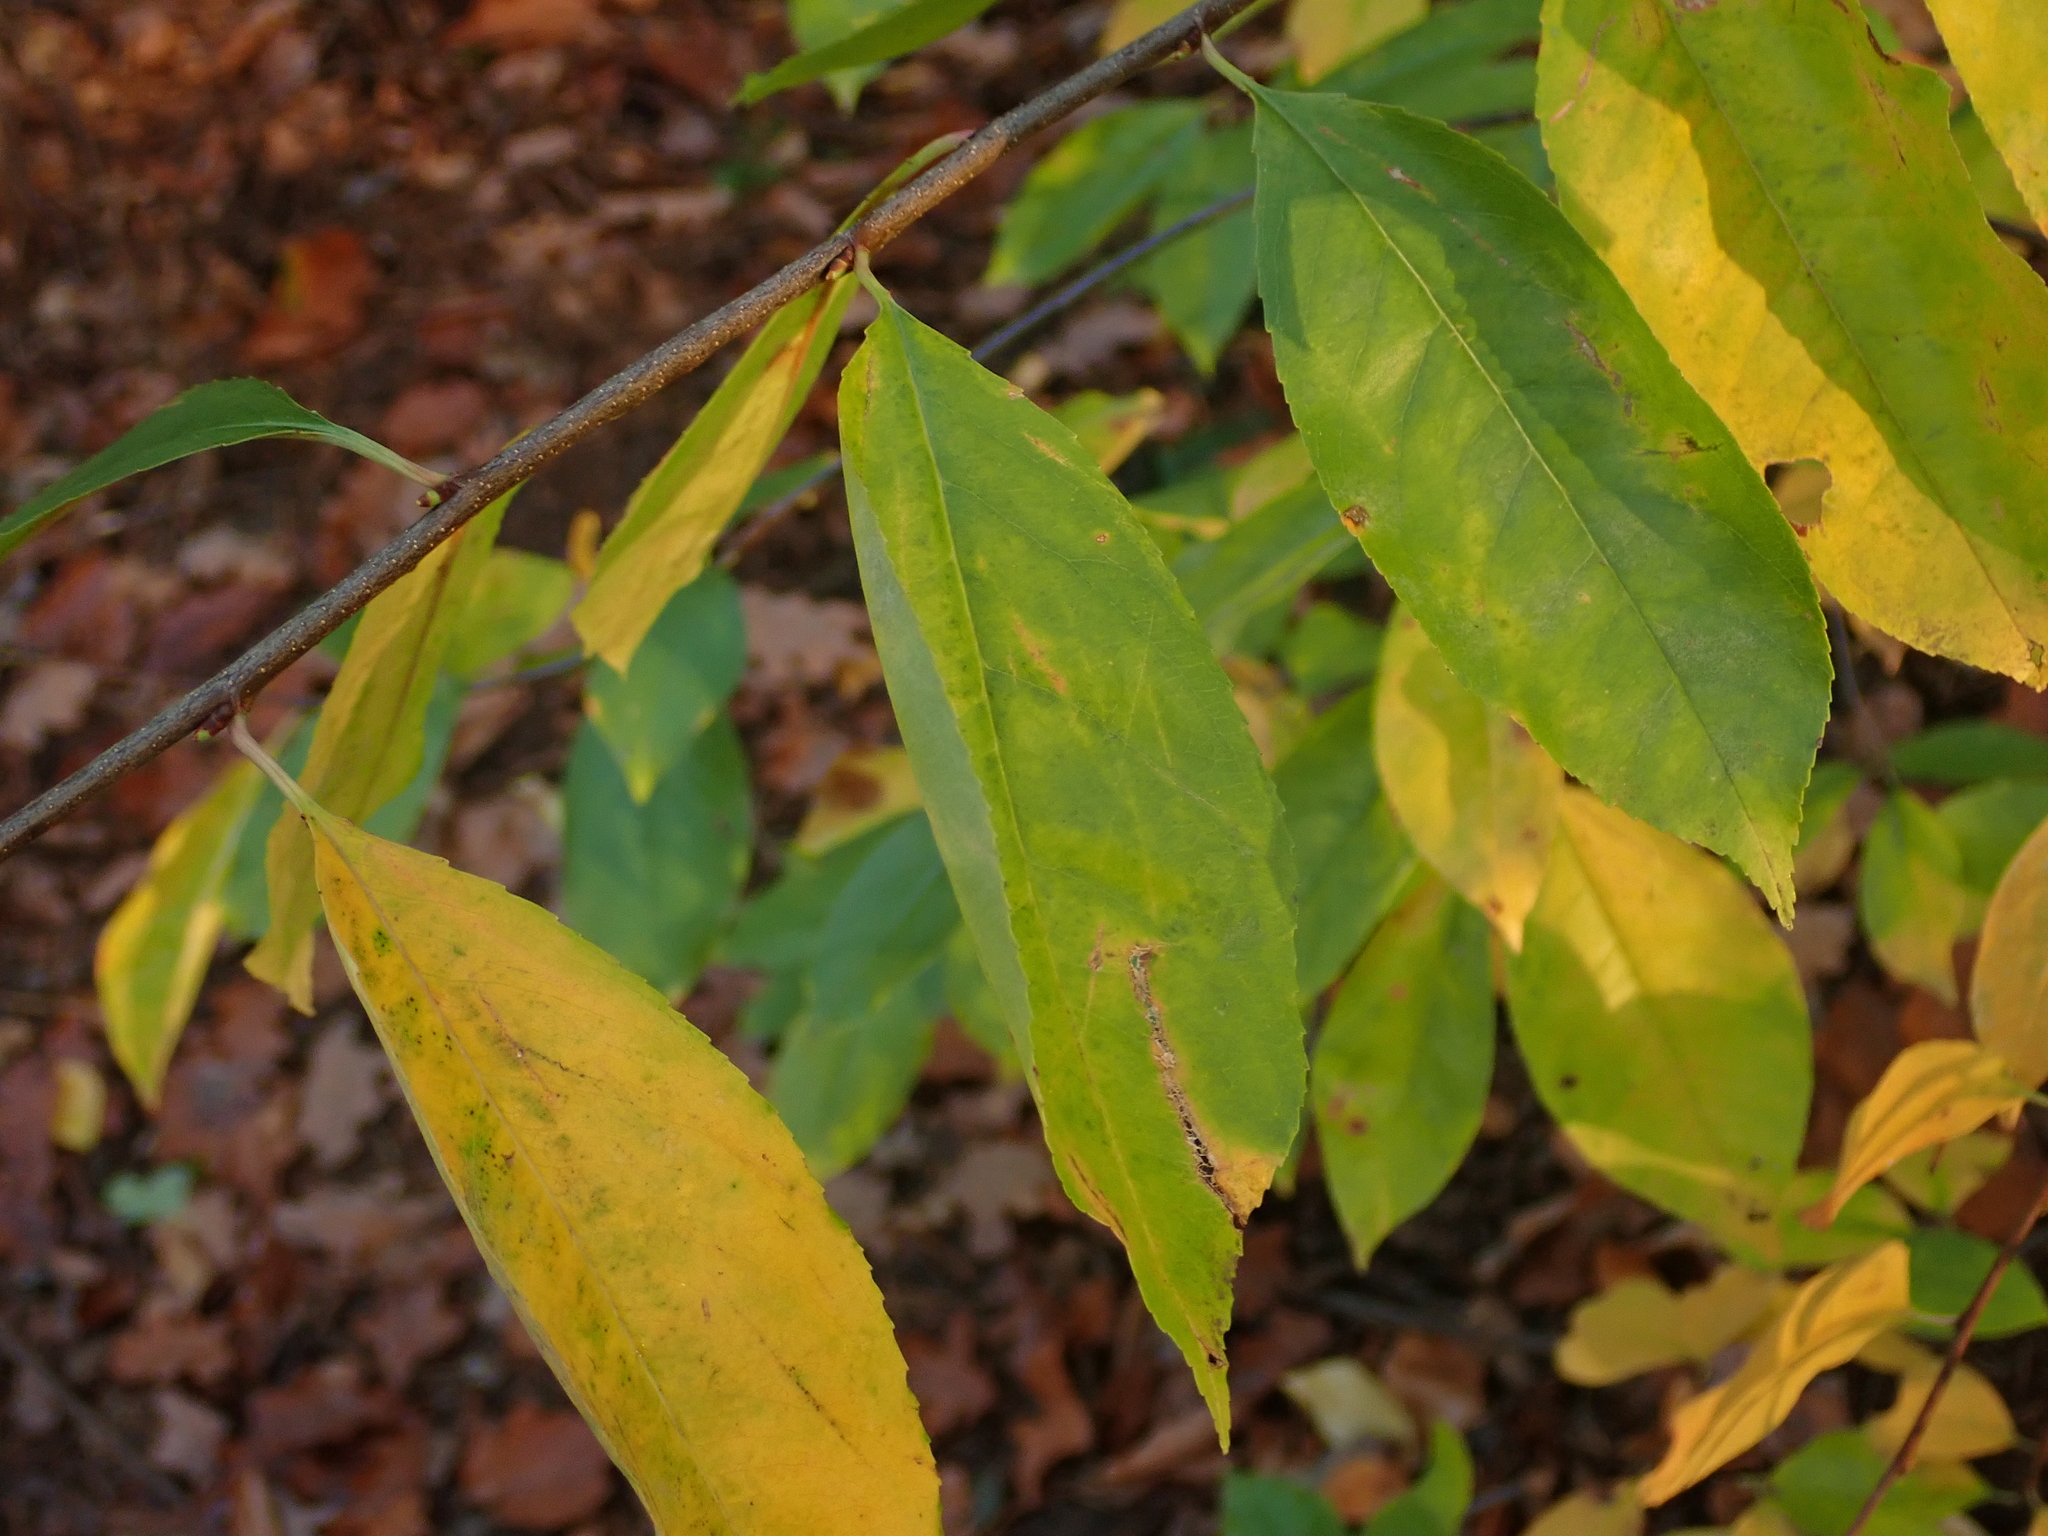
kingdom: Plantae
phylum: Tracheophyta
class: Magnoliopsida
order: Rosales
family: Rosaceae
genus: Prunus
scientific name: Prunus serotina
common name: Black cherry
